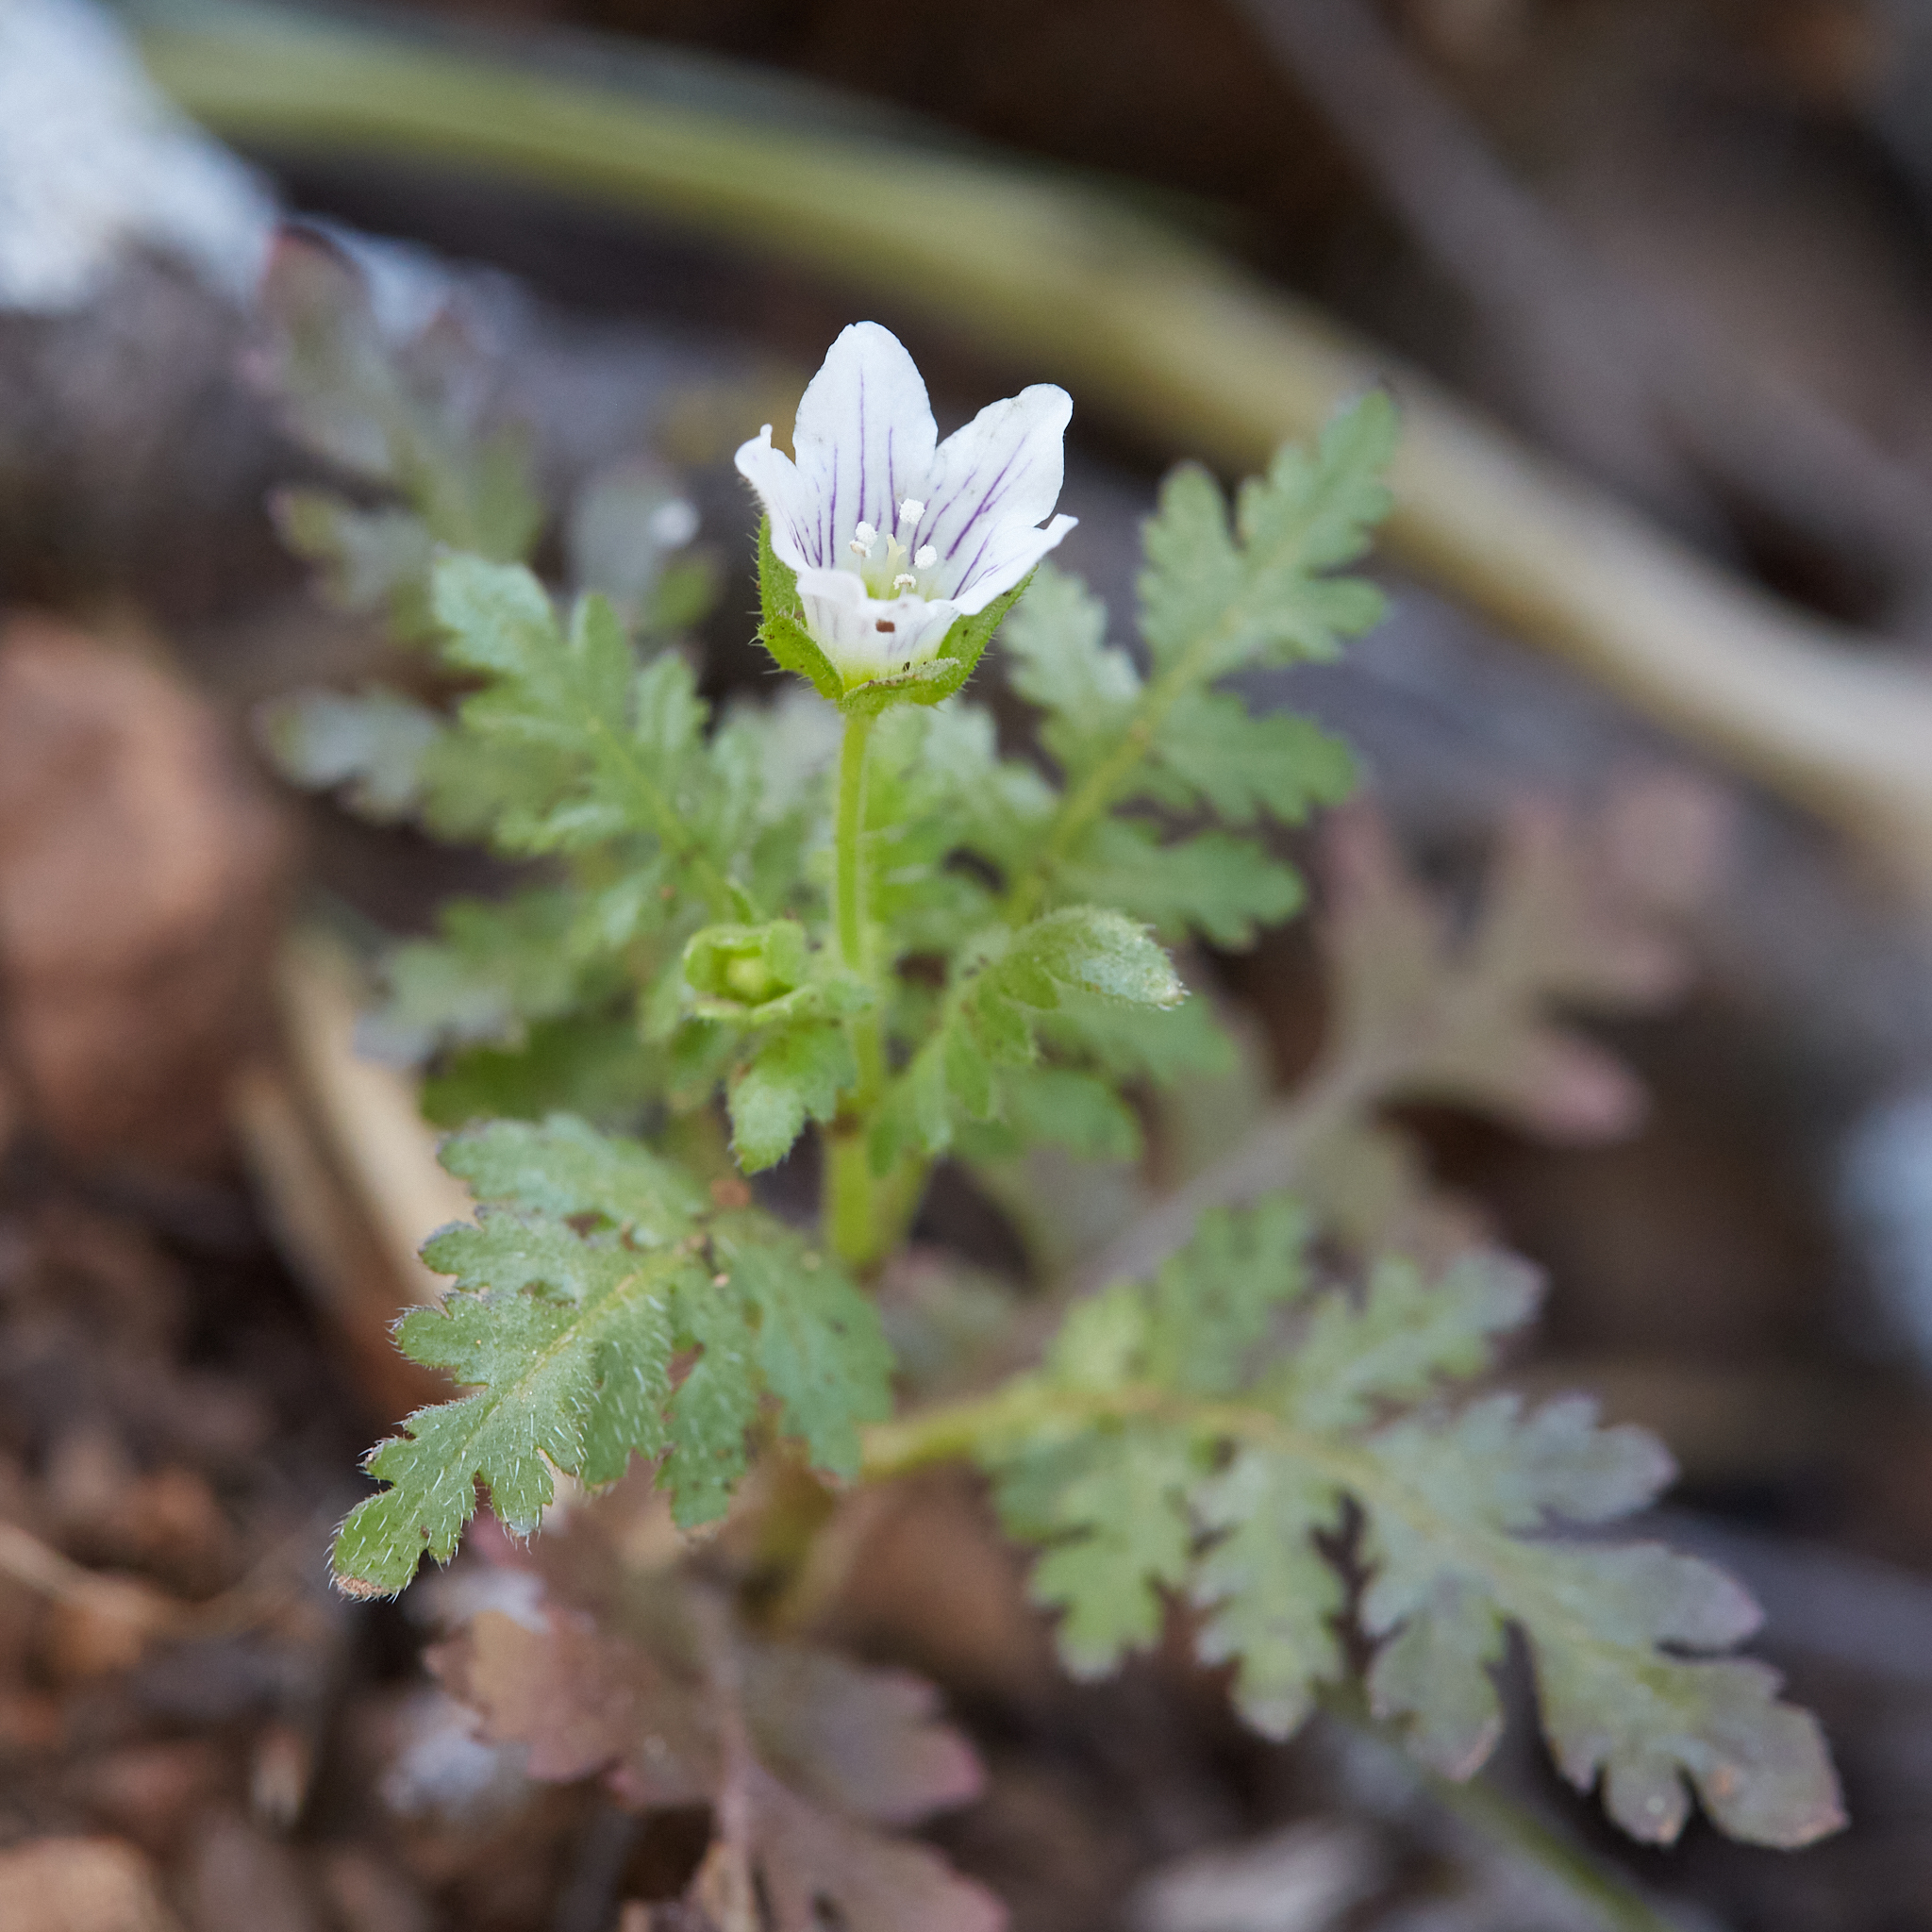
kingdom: Plantae
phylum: Tracheophyta
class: Magnoliopsida
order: Boraginales
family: Hydrophyllaceae
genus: Eucrypta
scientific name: Eucrypta chrysanthemifolia
